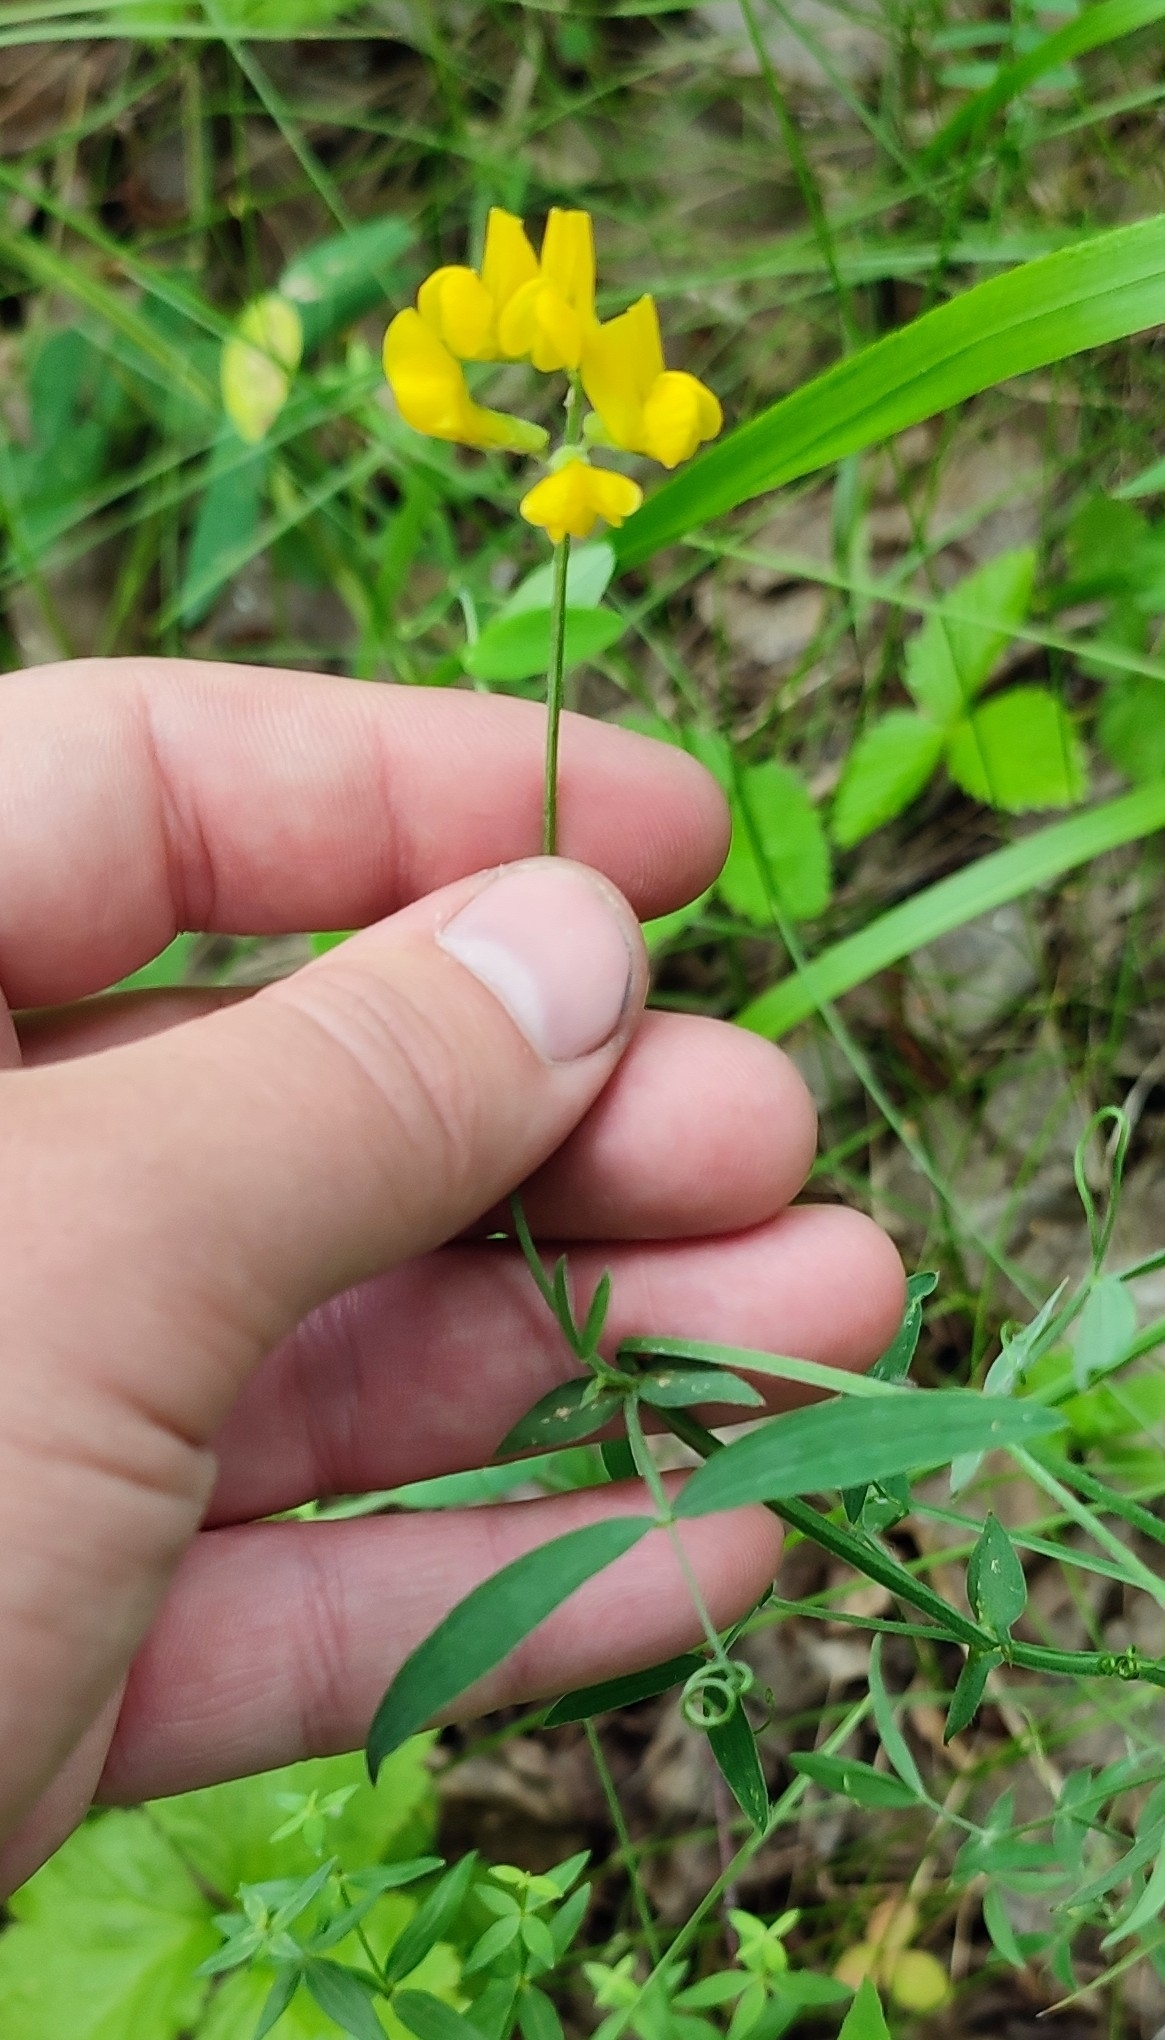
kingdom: Plantae
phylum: Tracheophyta
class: Magnoliopsida
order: Fabales
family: Fabaceae
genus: Lathyrus
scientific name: Lathyrus pratensis
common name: Meadow vetchling
